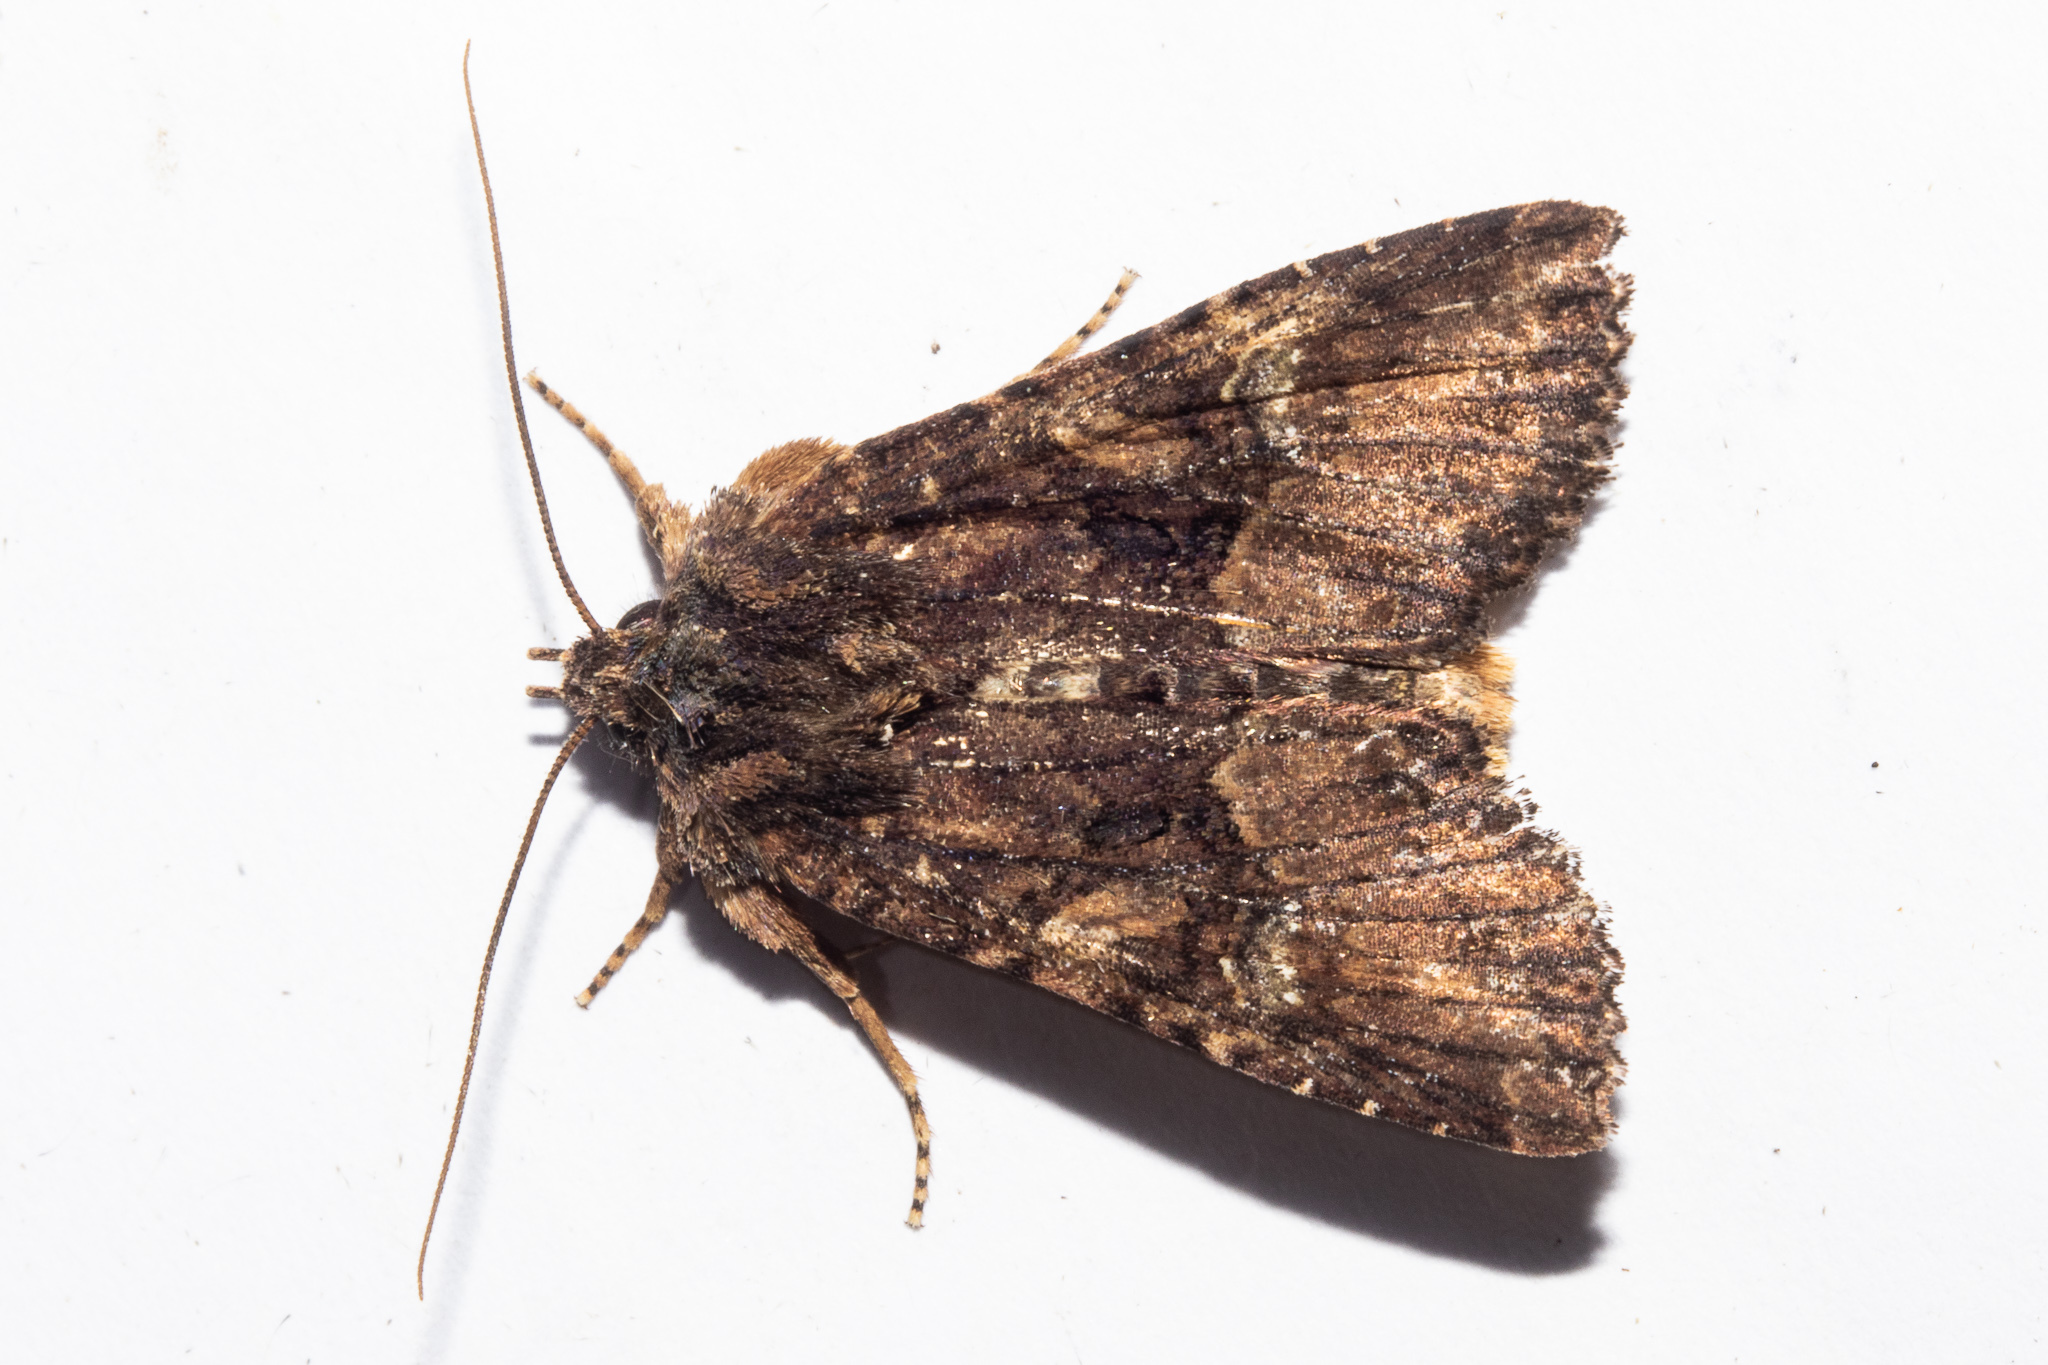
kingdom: Animalia
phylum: Arthropoda
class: Insecta
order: Lepidoptera
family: Noctuidae
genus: Meterana
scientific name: Meterana ochthistis
